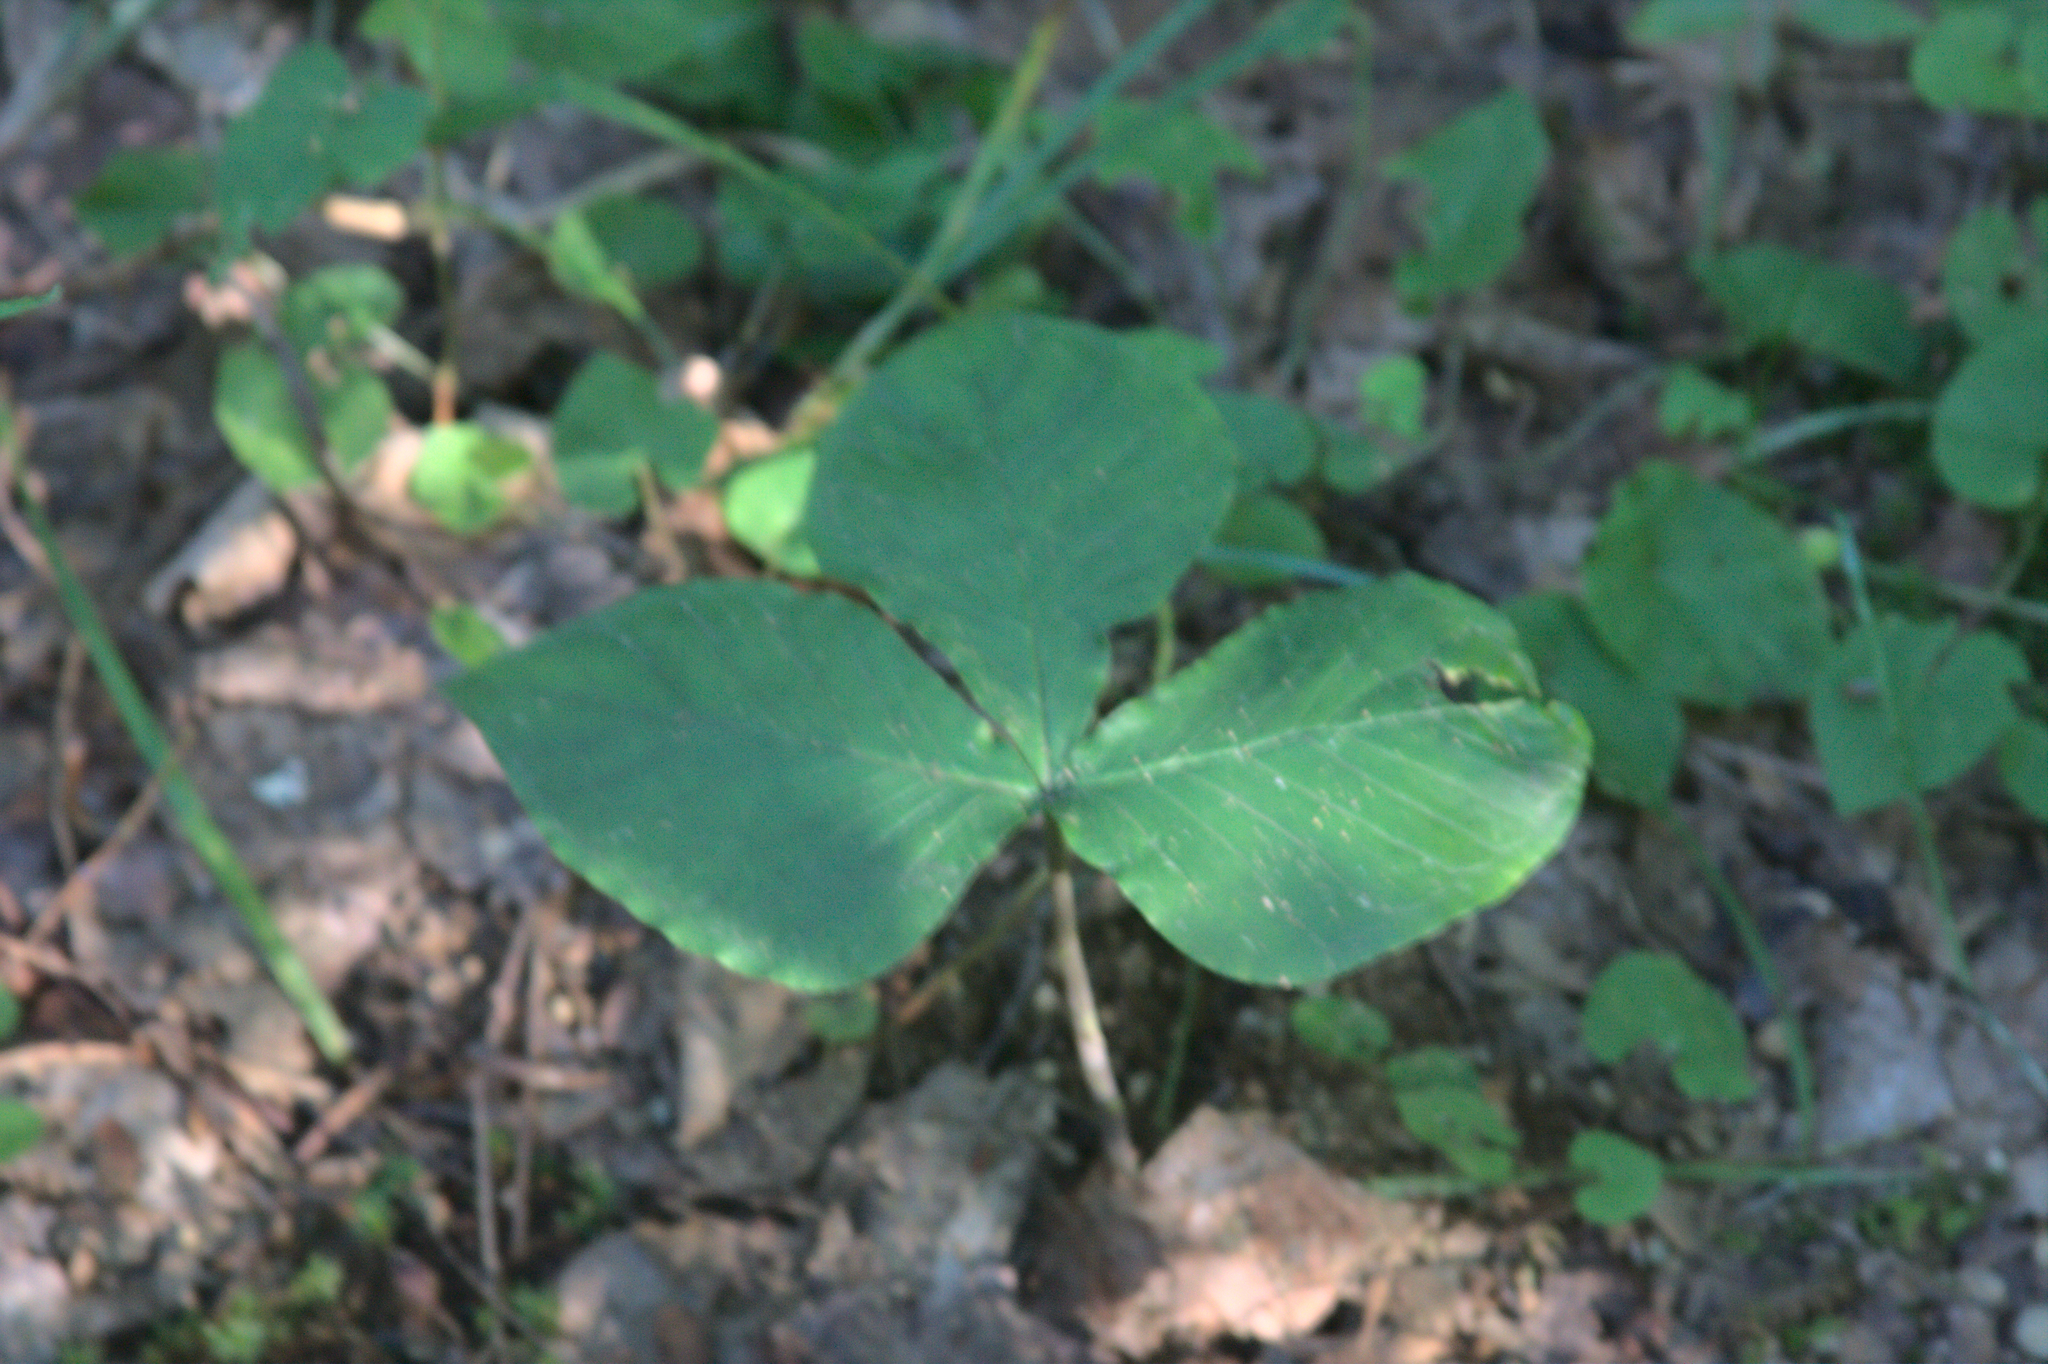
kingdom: Plantae
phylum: Tracheophyta
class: Liliopsida
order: Alismatales
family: Araceae
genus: Arisaema
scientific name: Arisaema triphyllum
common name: Jack-in-the-pulpit
